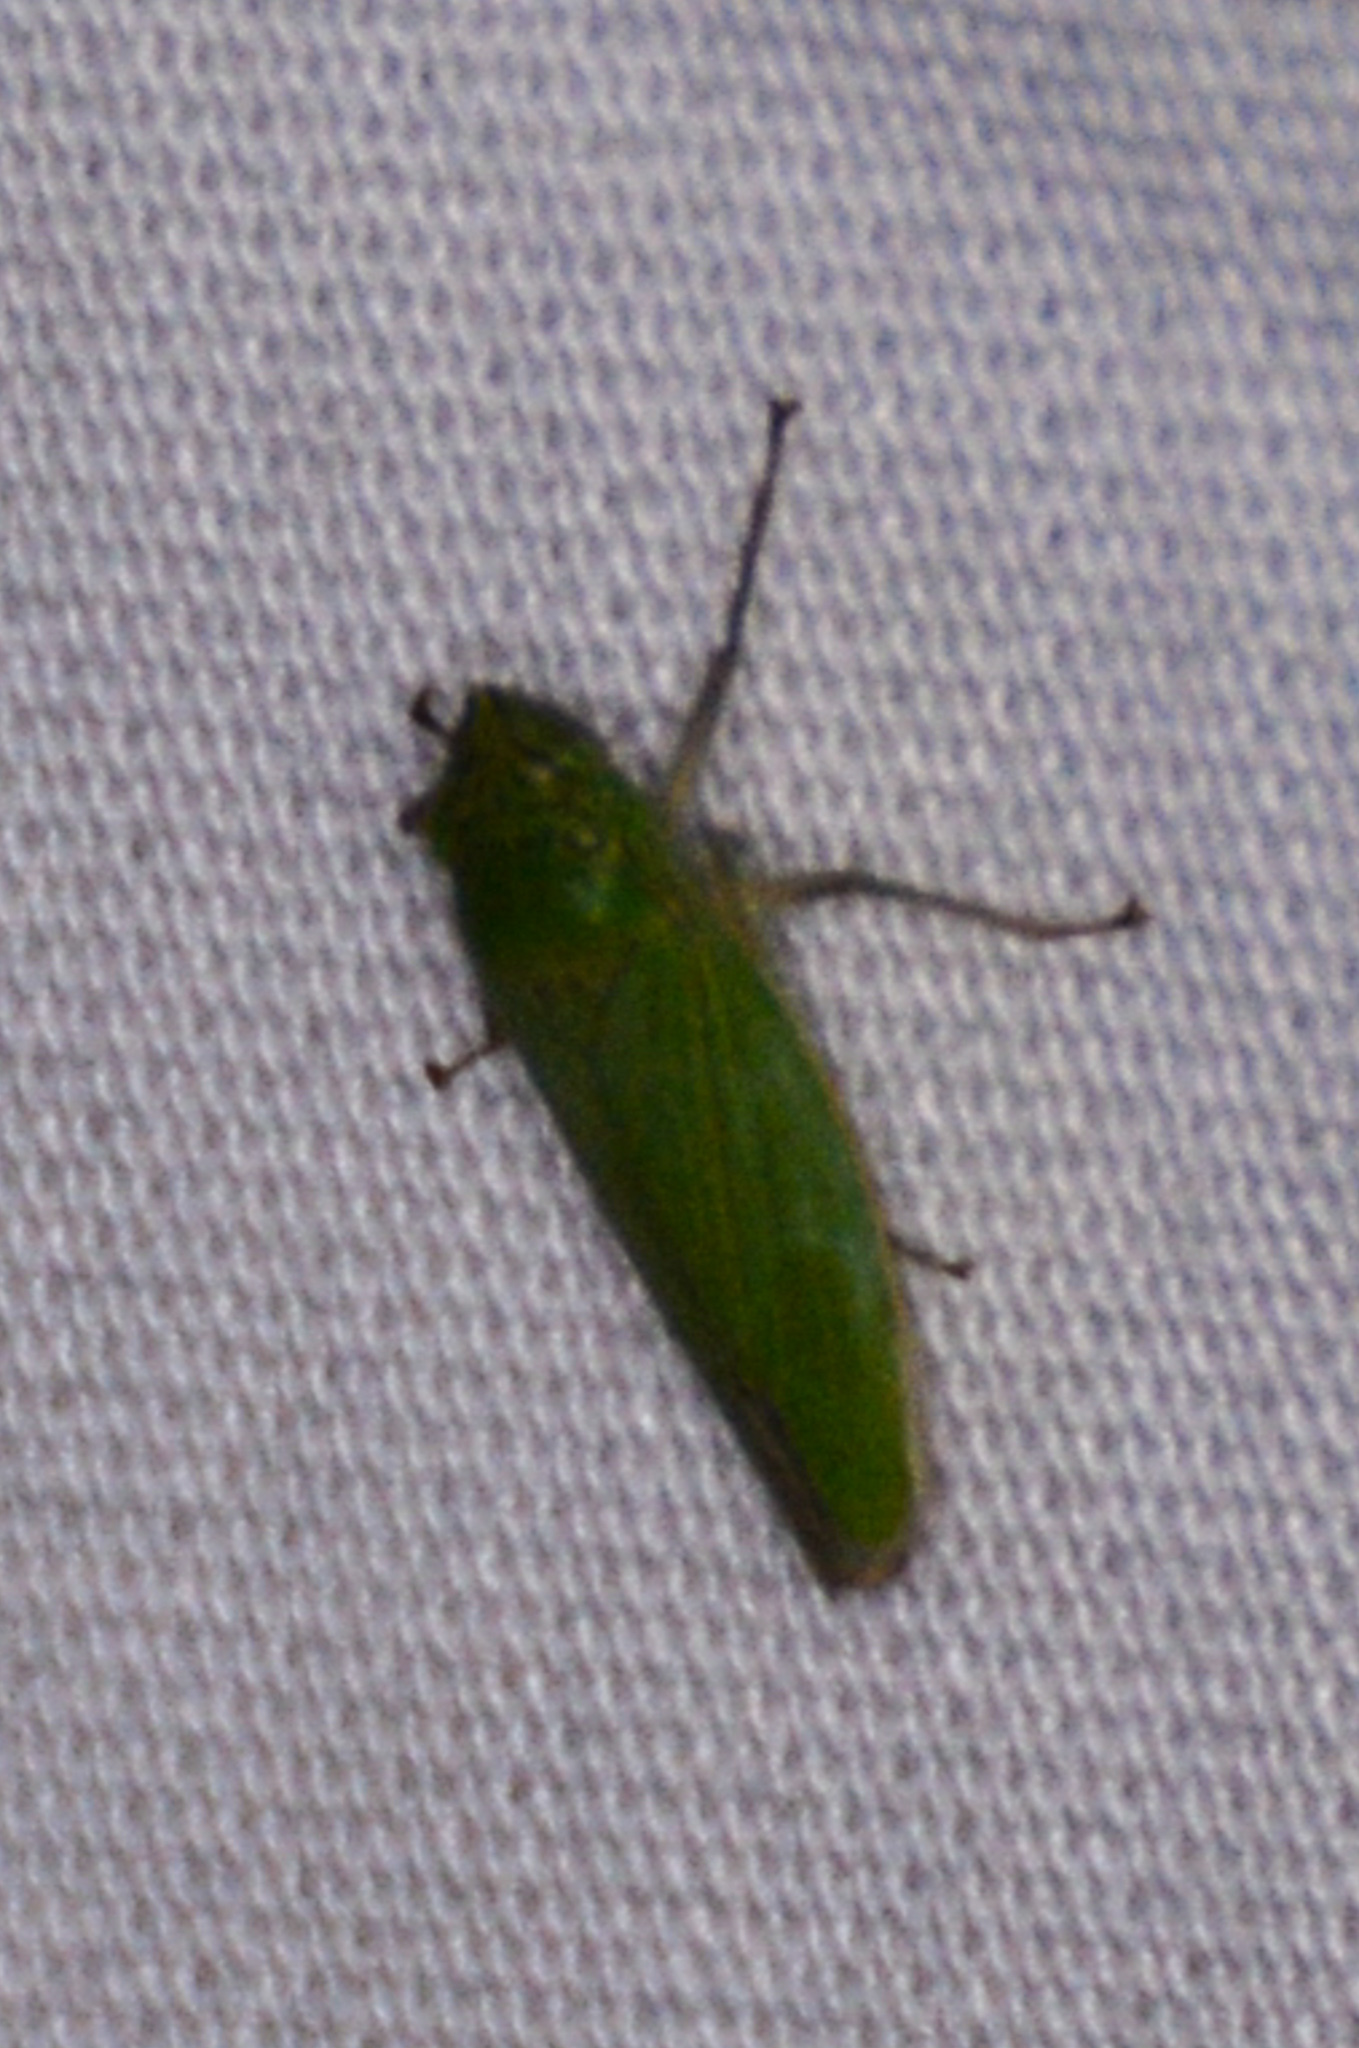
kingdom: Animalia
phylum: Arthropoda
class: Insecta
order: Hemiptera
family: Cicadellidae
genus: Draeculacephala
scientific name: Draeculacephala inscripta
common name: Leafhopper
